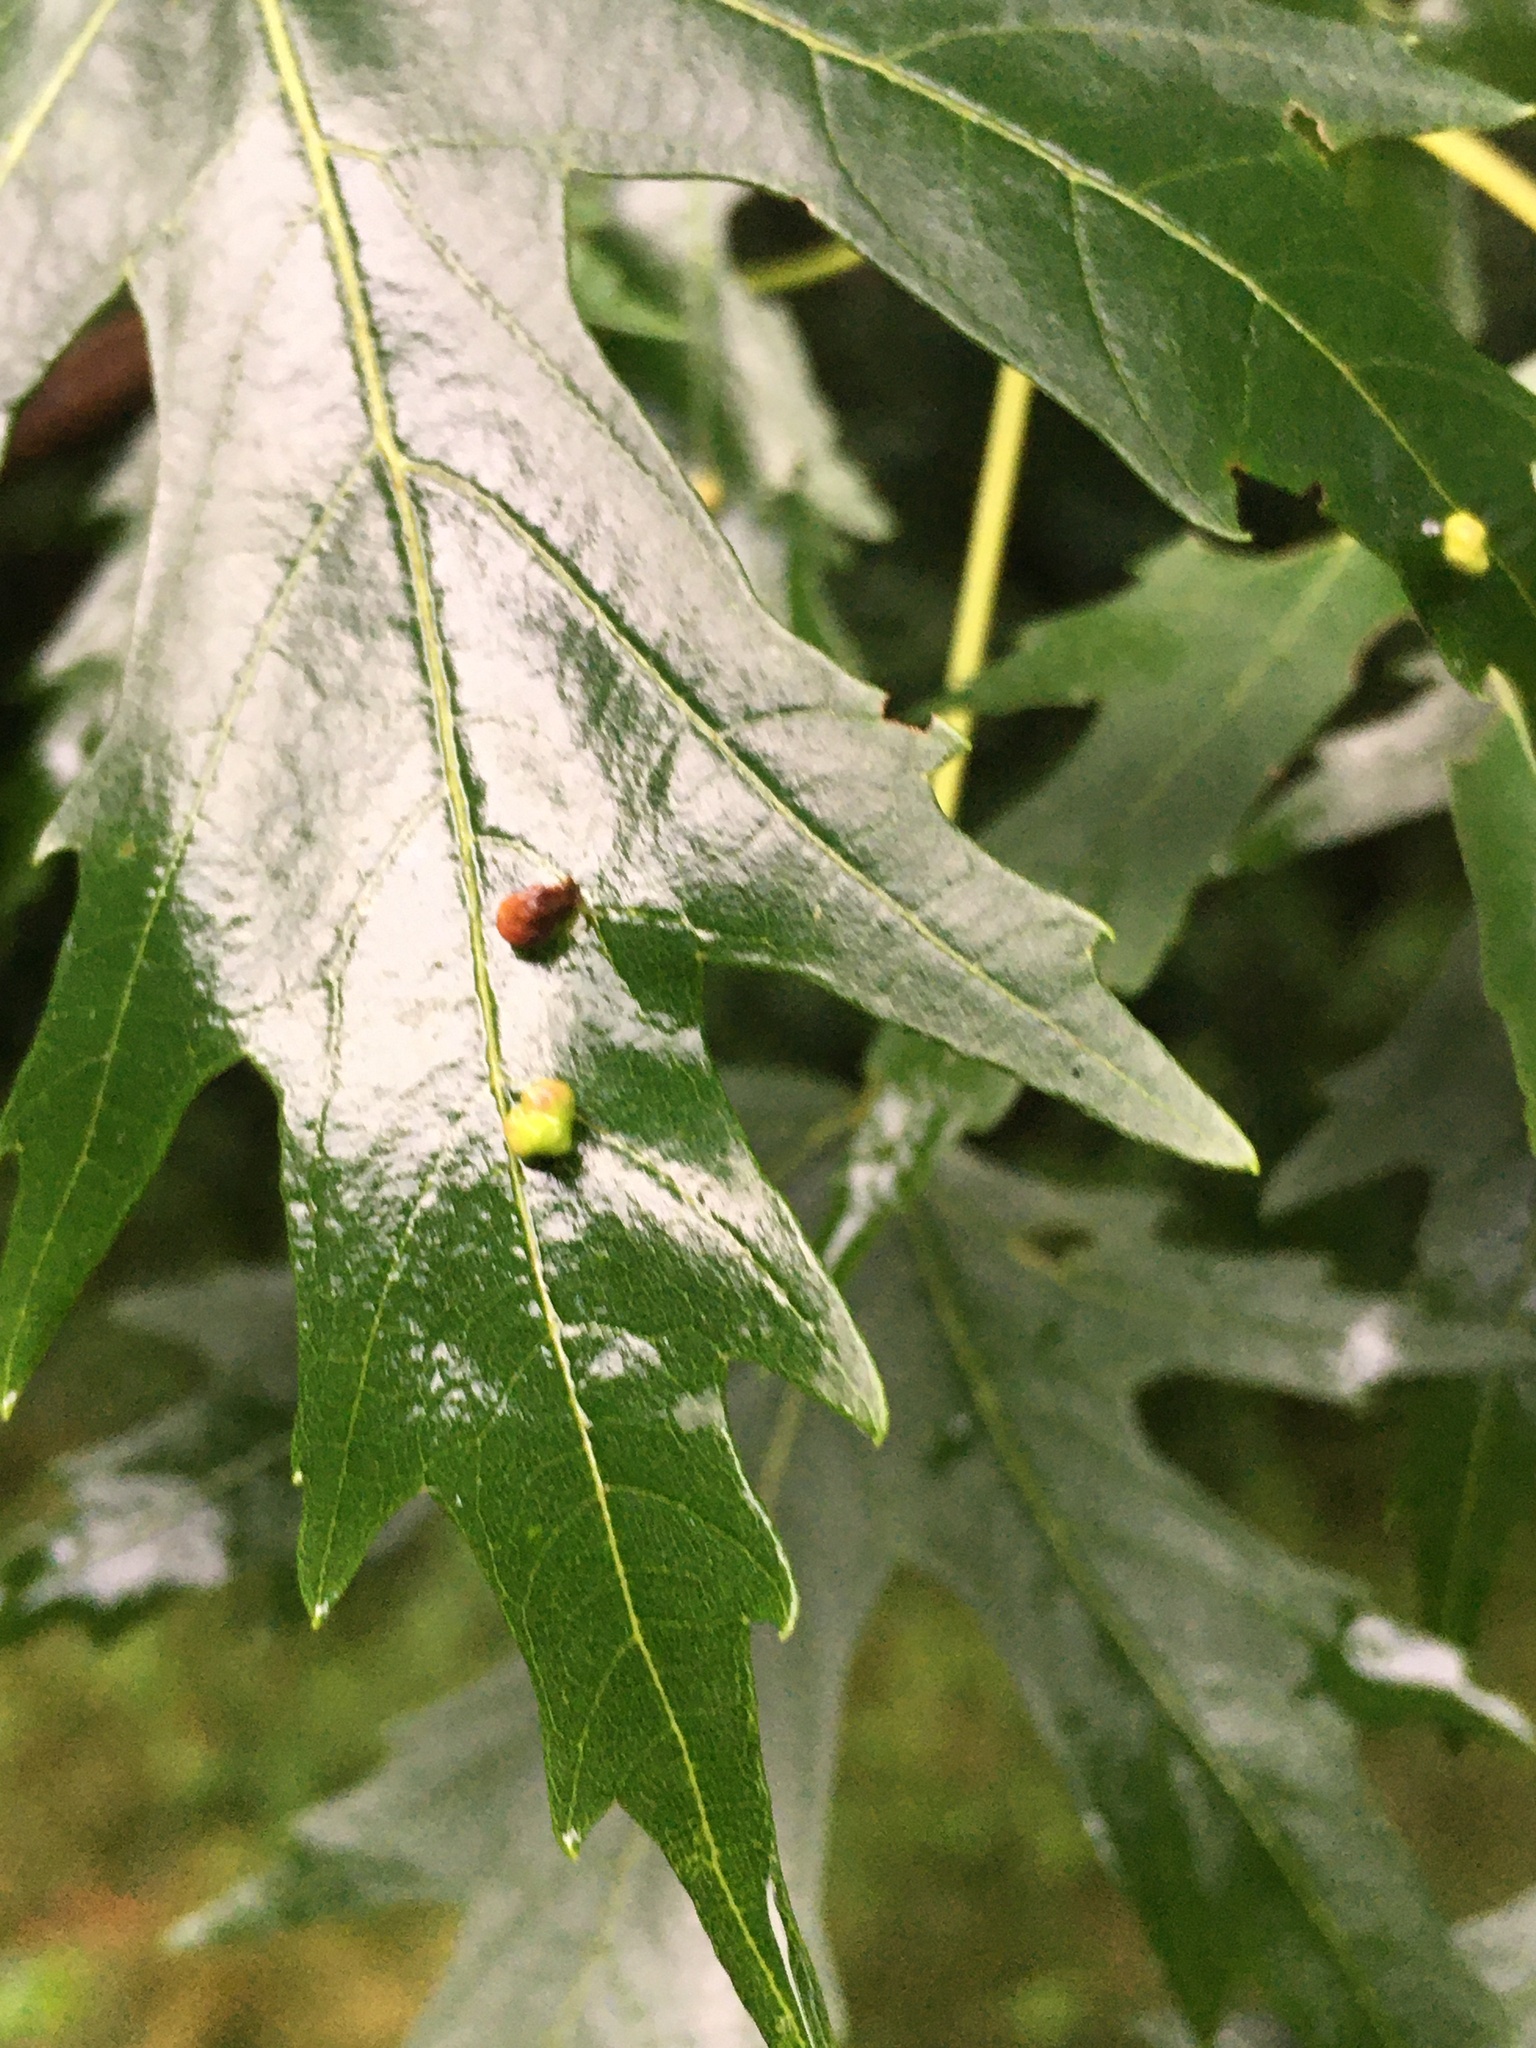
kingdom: Animalia
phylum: Arthropoda
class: Arachnida
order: Trombidiformes
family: Eriophyidae
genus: Vasates
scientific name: Vasates quadripedes
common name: Maple bladder gall mite
